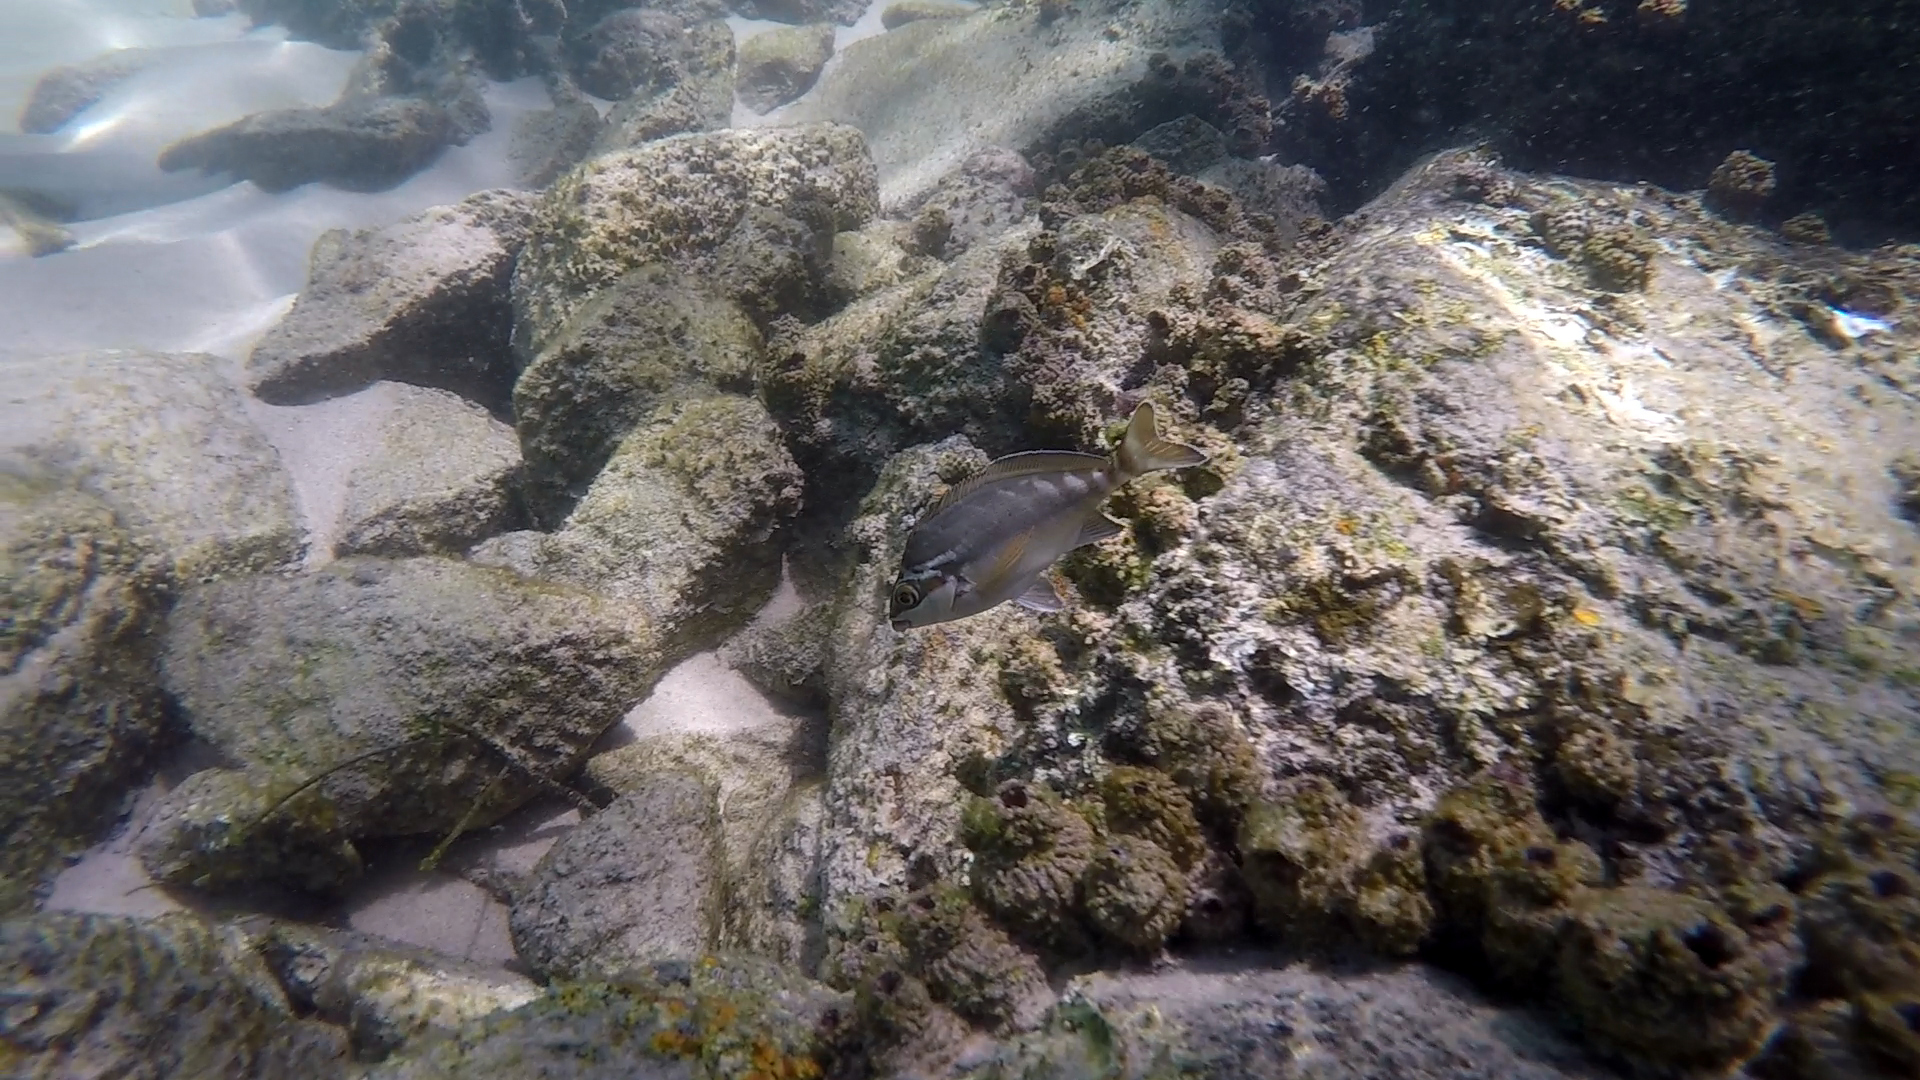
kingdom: Animalia
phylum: Chordata
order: Perciformes
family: Latridae
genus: Morwong
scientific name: Morwong fuscus
